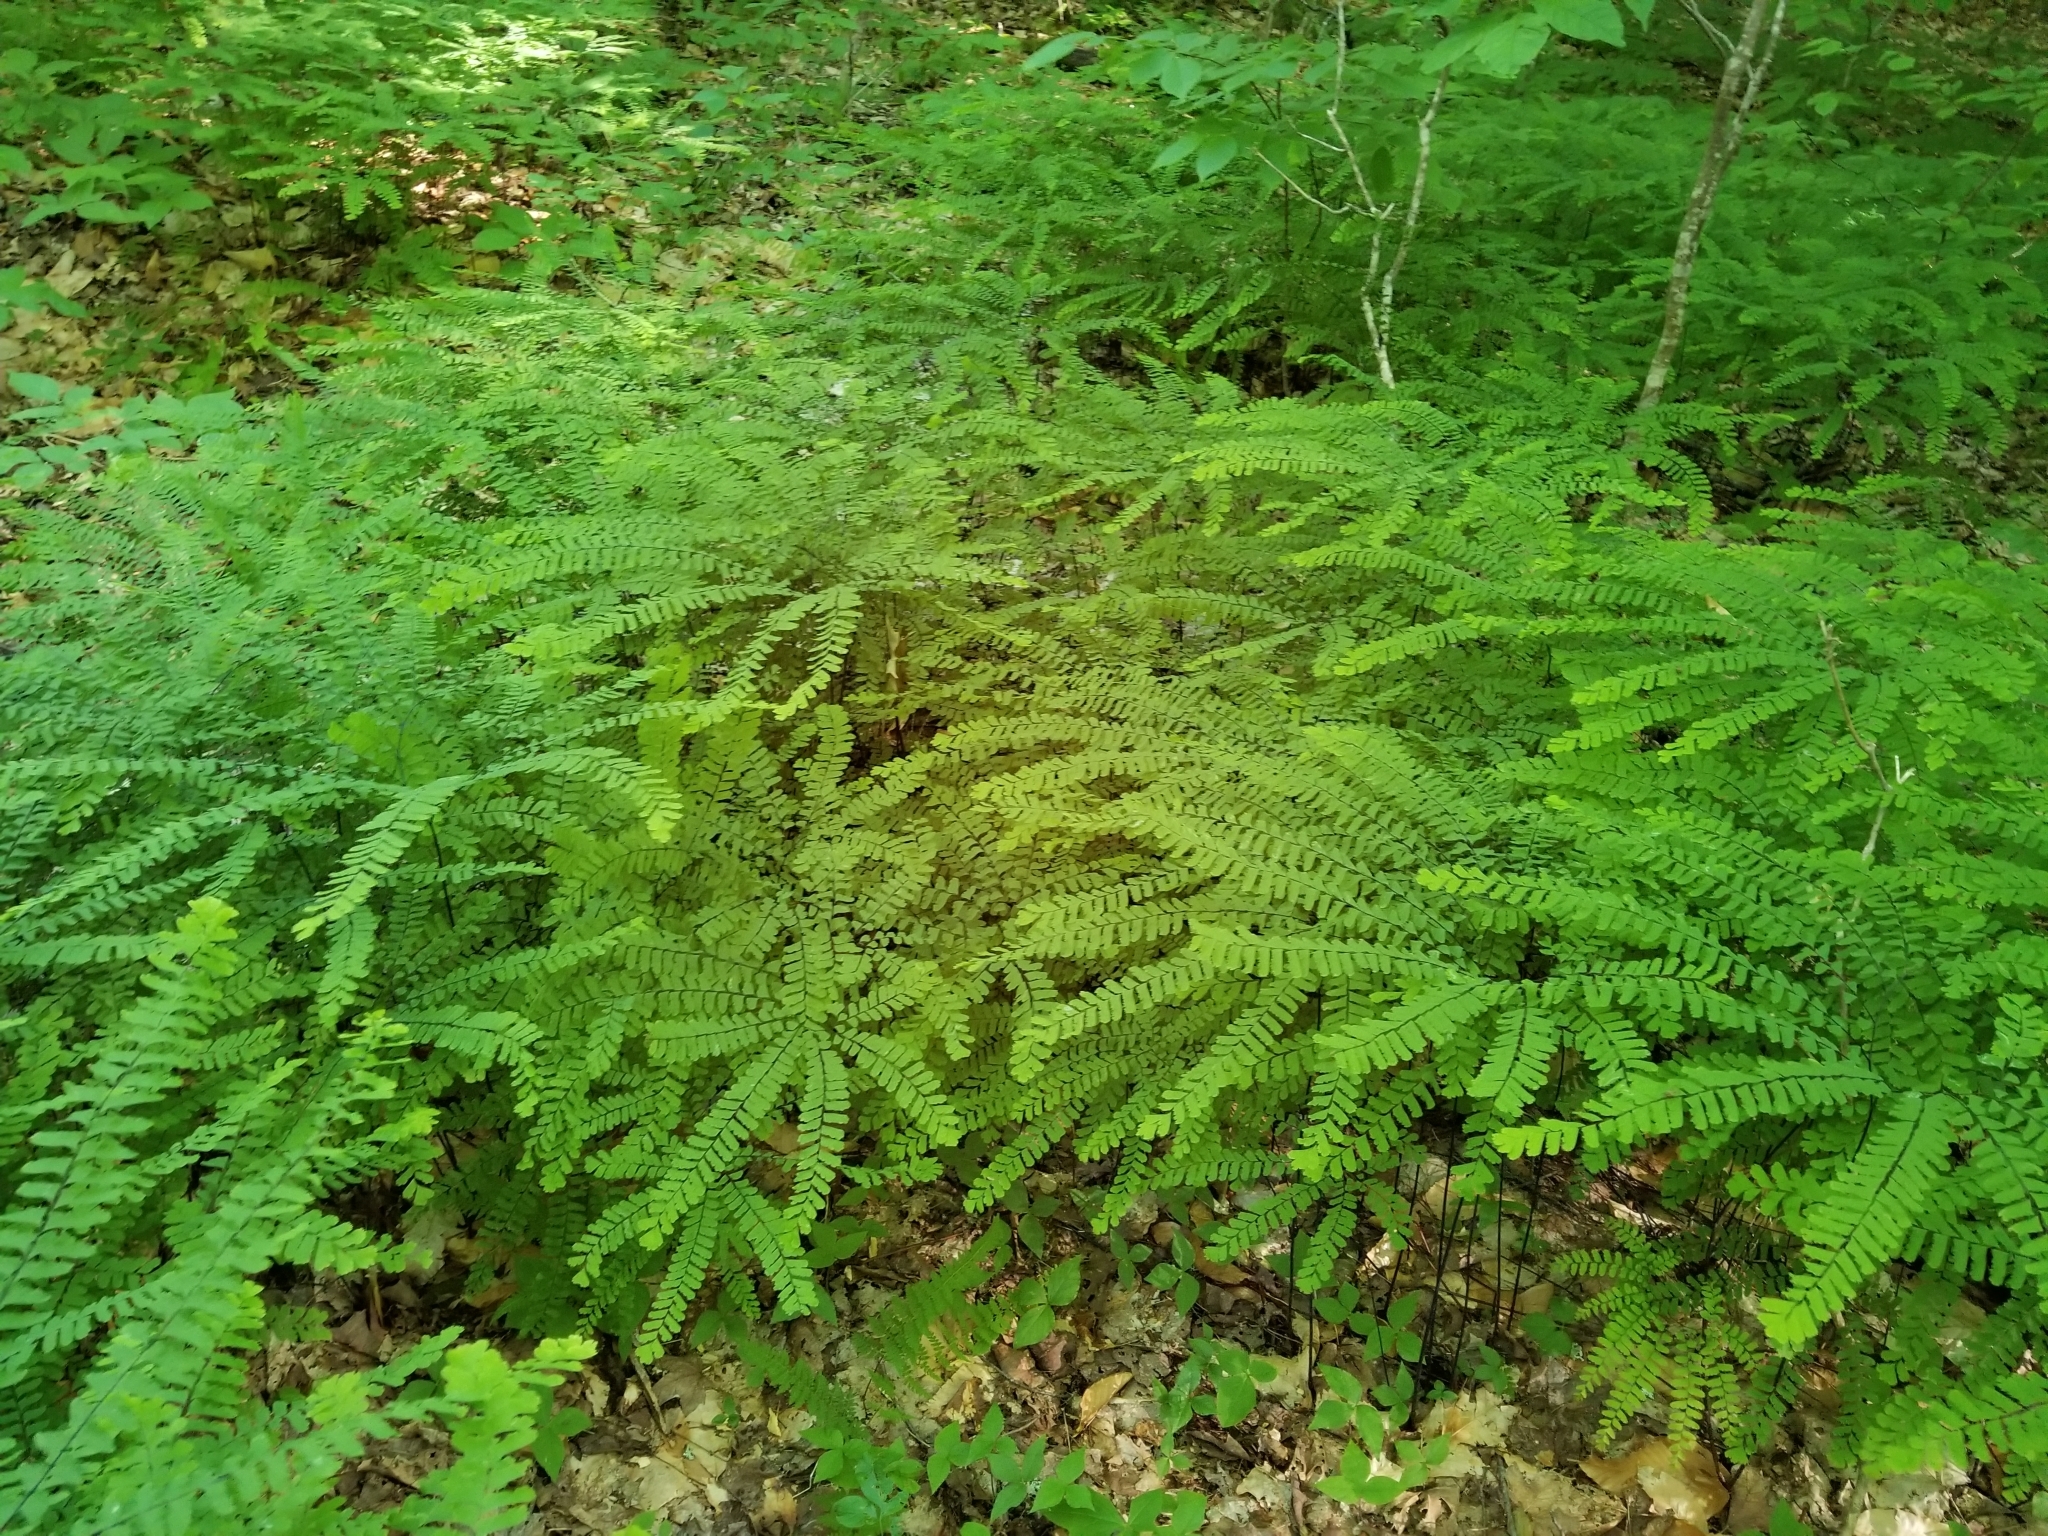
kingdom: Plantae
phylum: Tracheophyta
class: Polypodiopsida
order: Polypodiales
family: Pteridaceae
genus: Adiantum
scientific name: Adiantum pedatum
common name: Five-finger fern
